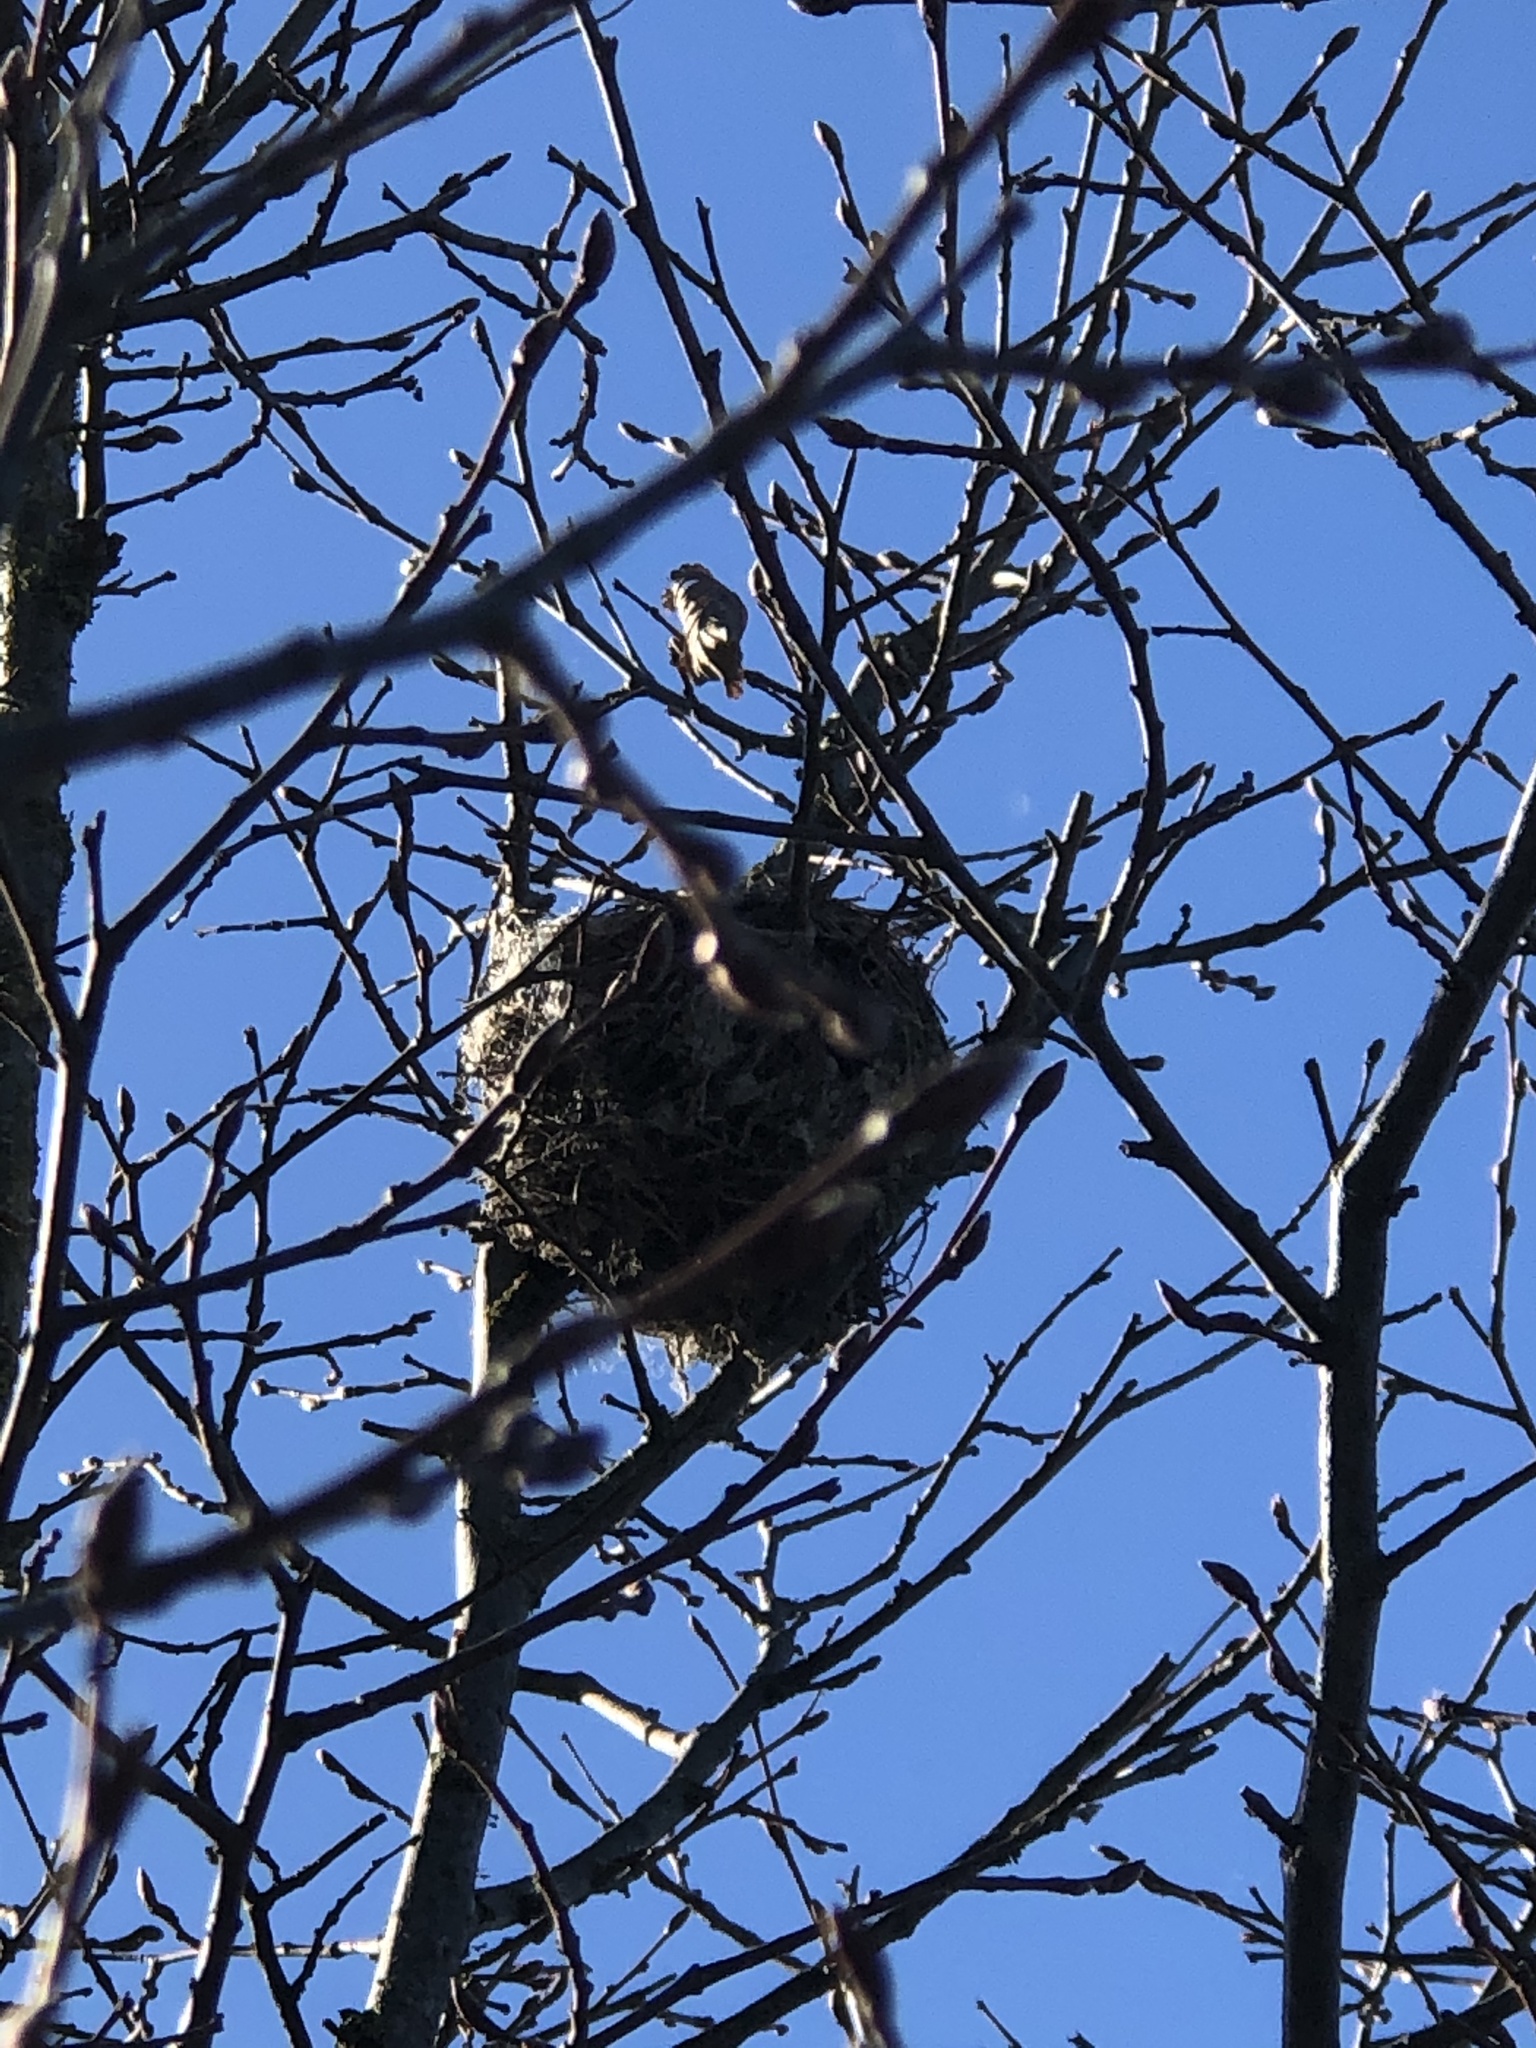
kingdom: Animalia
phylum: Chordata
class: Aves
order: Passeriformes
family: Zosteropidae
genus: Zosterops
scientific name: Zosterops lateralis
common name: Silvereye
